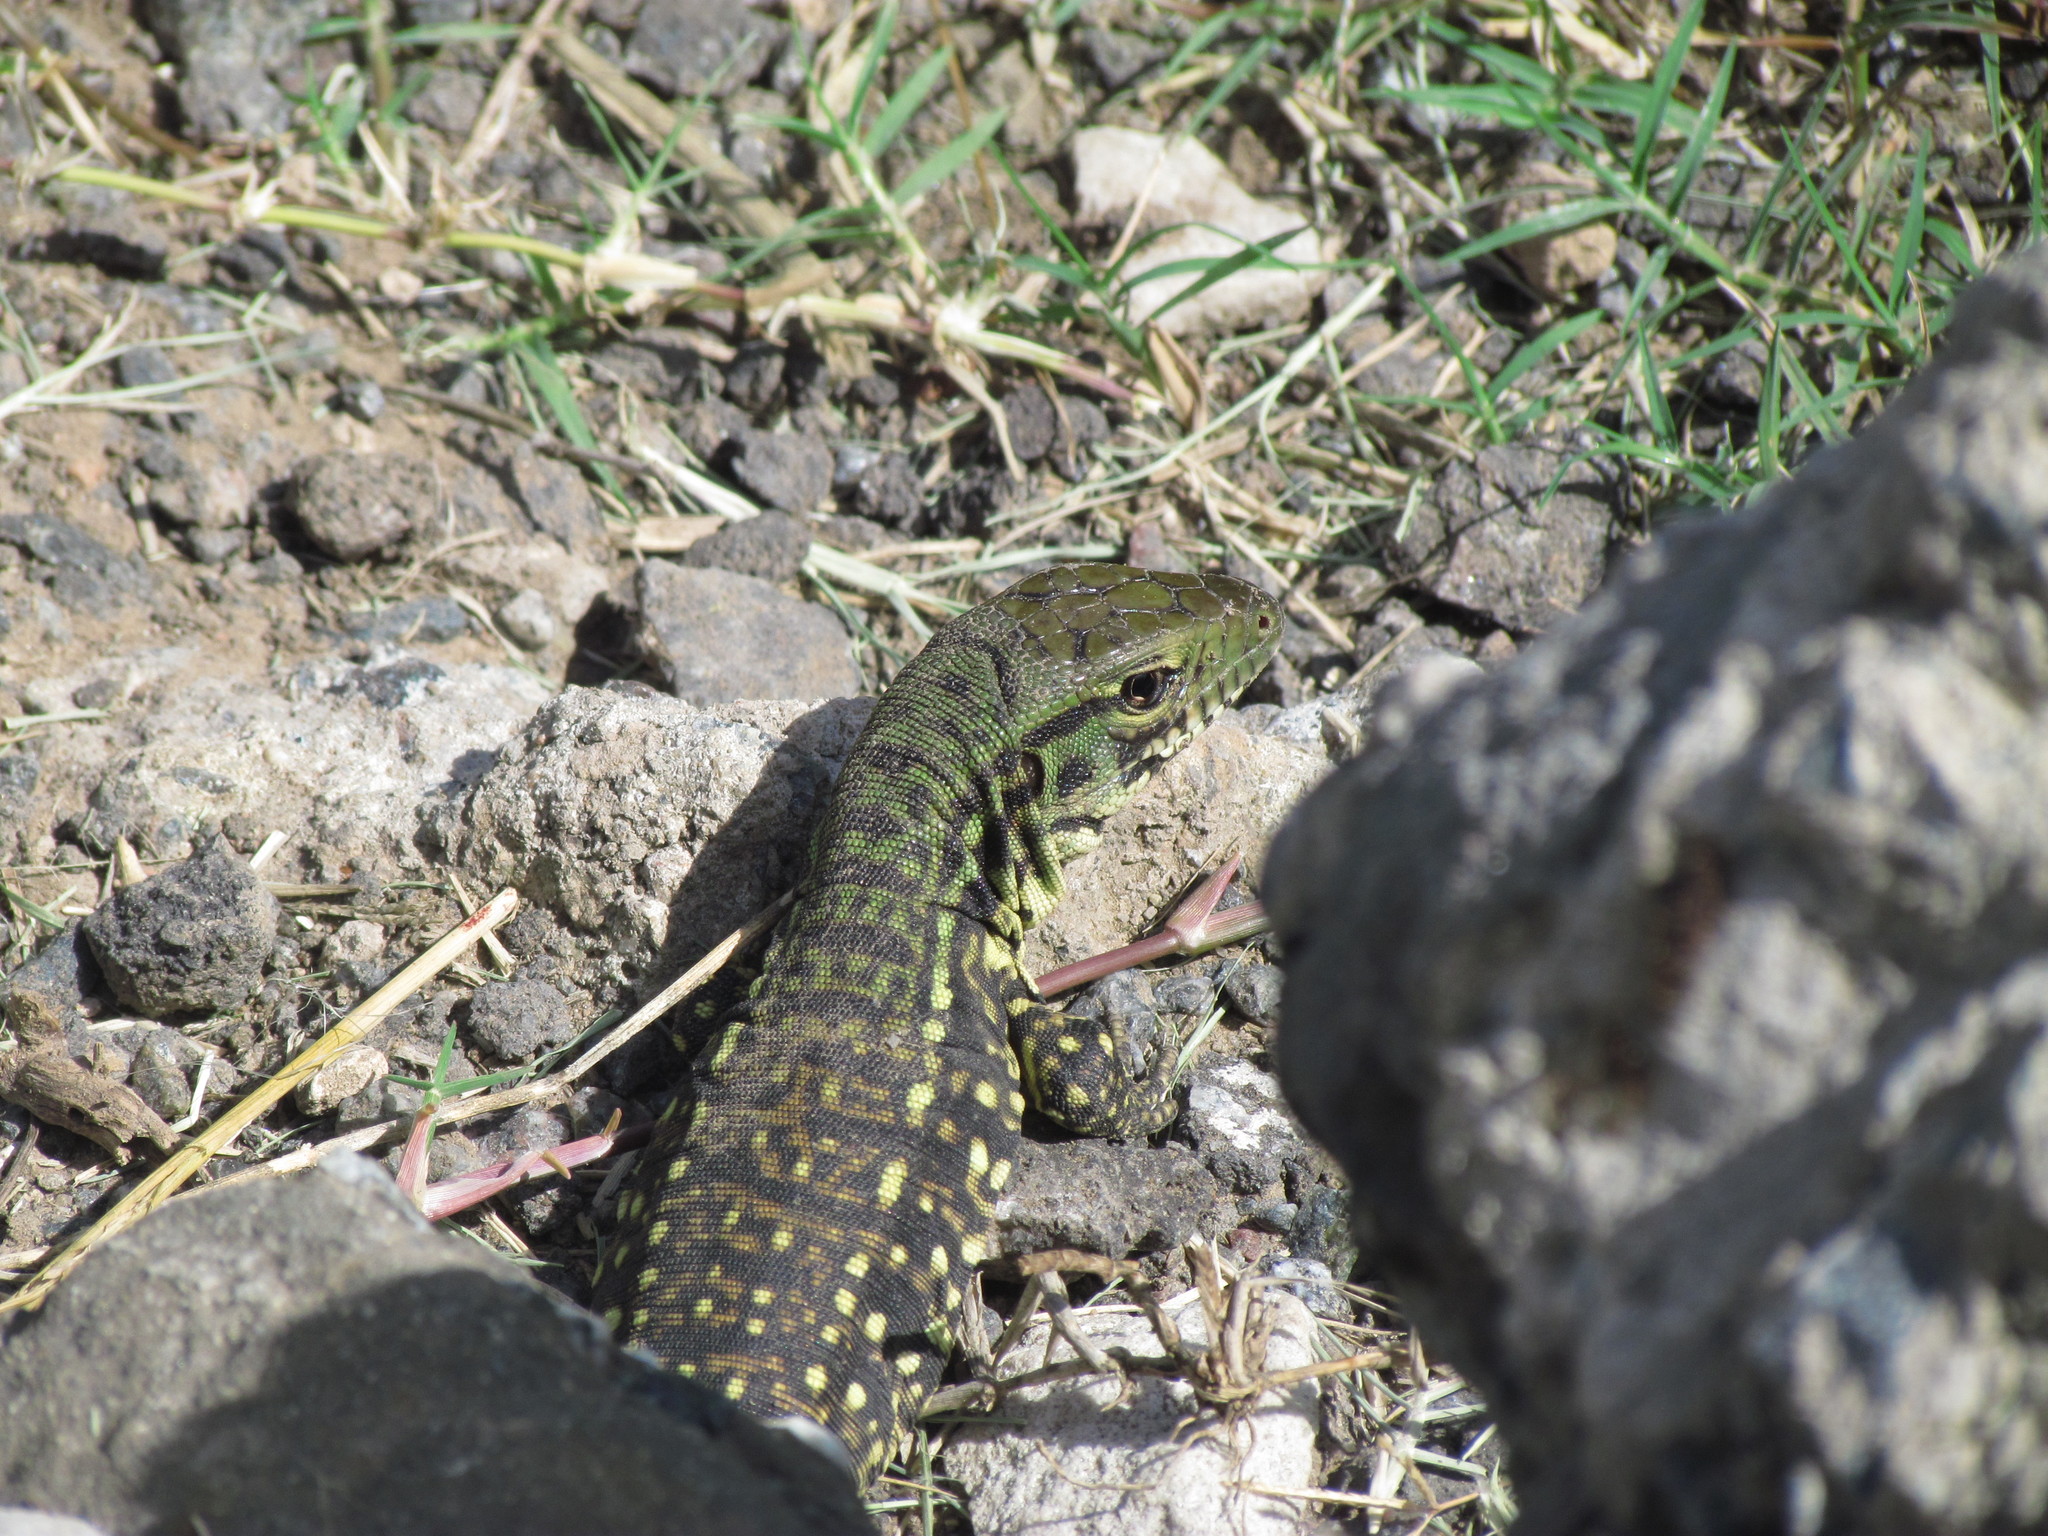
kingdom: Animalia
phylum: Chordata
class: Squamata
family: Teiidae
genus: Salvator
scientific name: Salvator merianae
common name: Argentine black and white tegu
